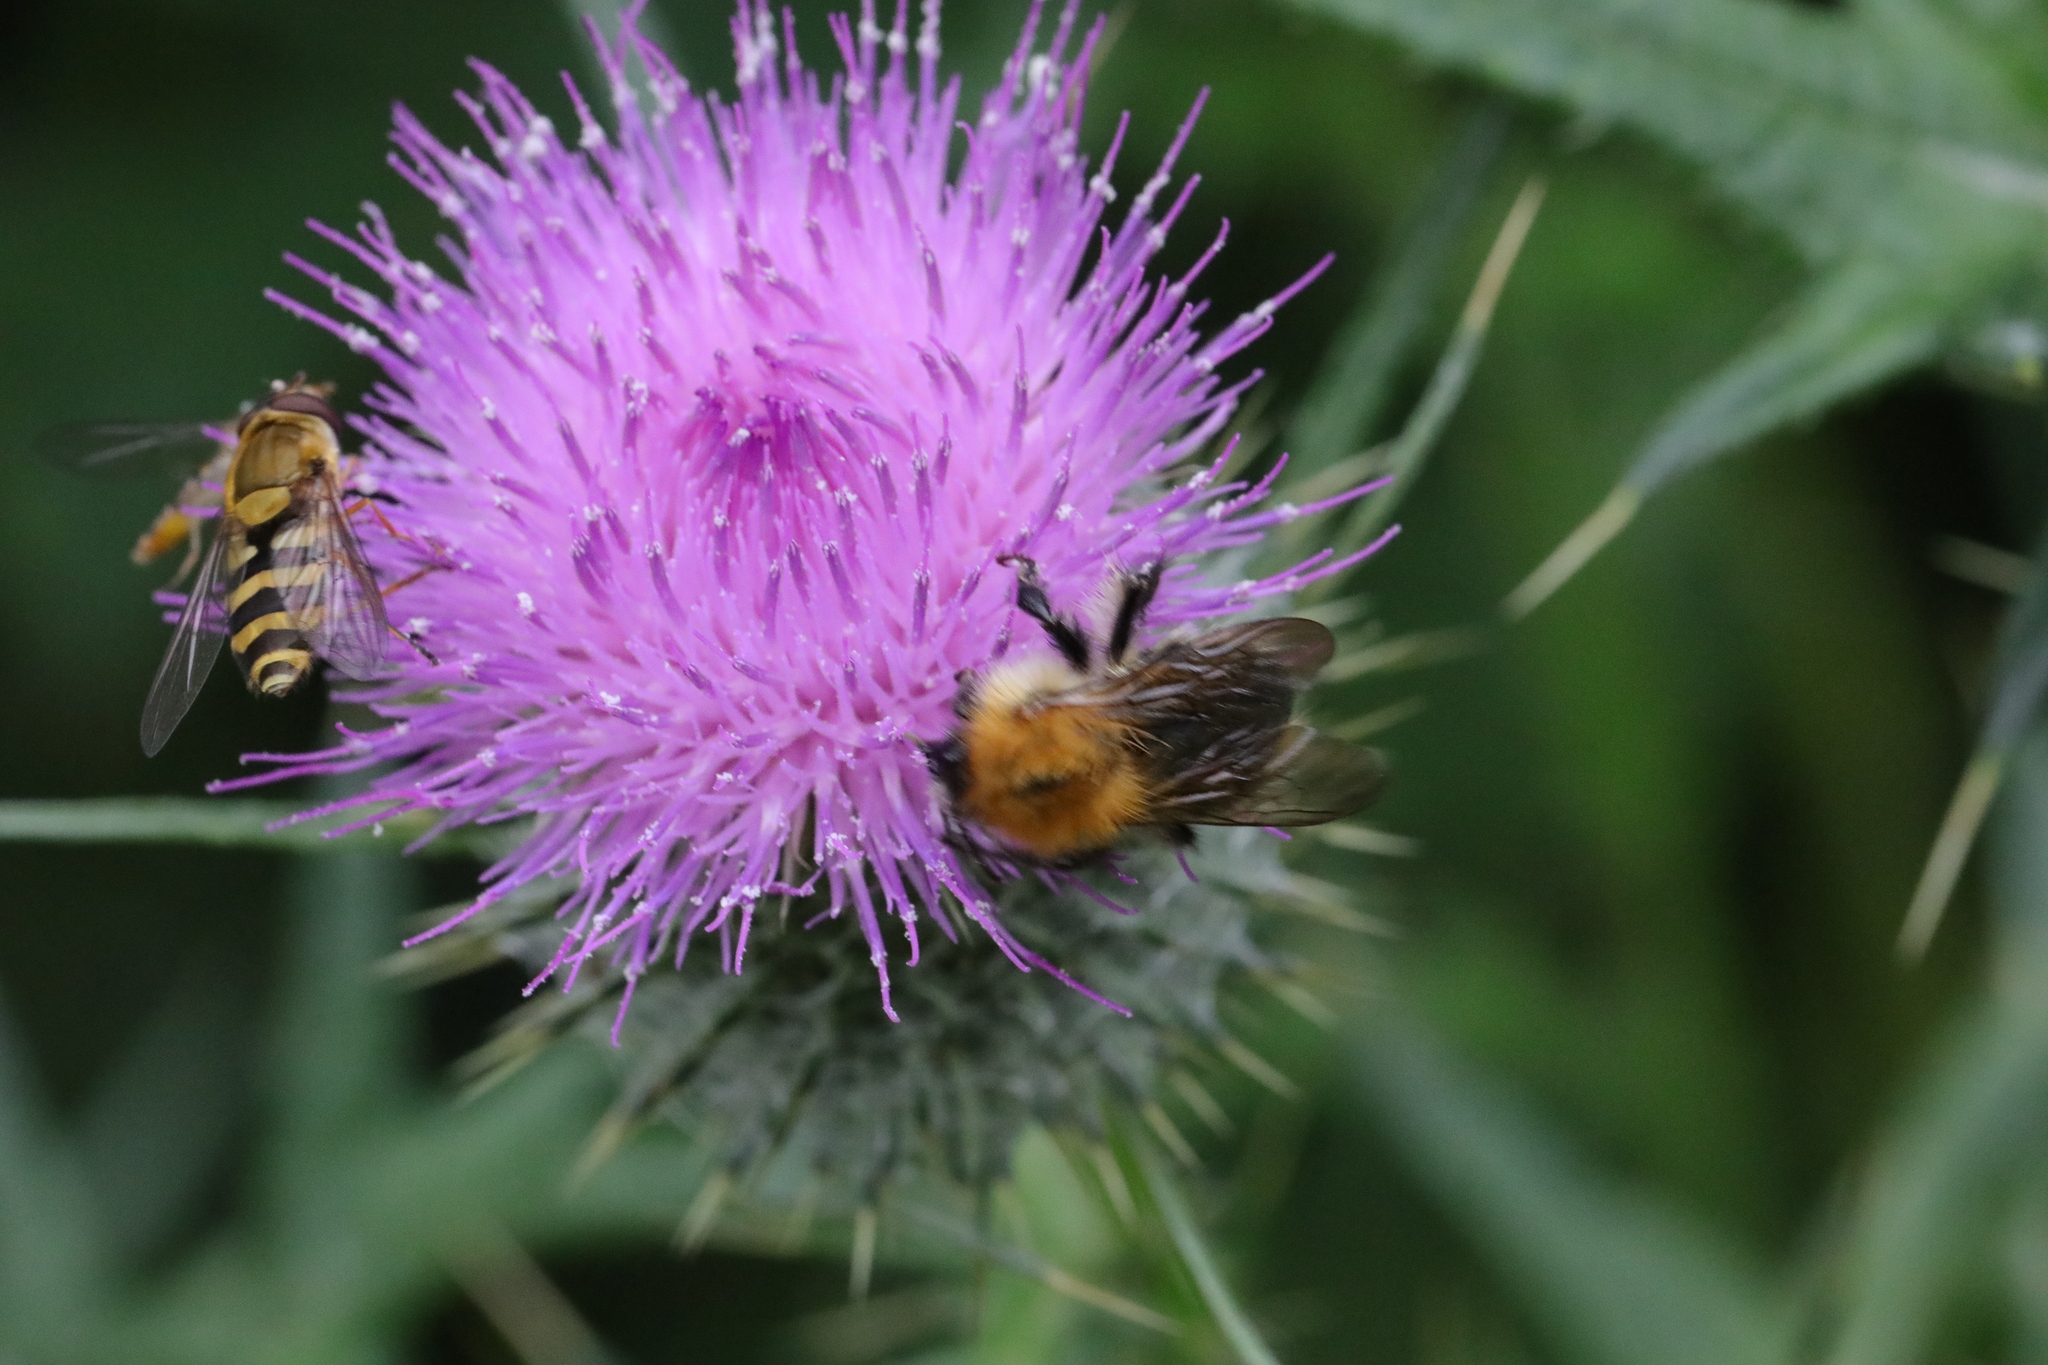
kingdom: Animalia
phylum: Arthropoda
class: Insecta
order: Hymenoptera
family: Apidae
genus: Bombus
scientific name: Bombus pascuorum
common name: Common carder bee
